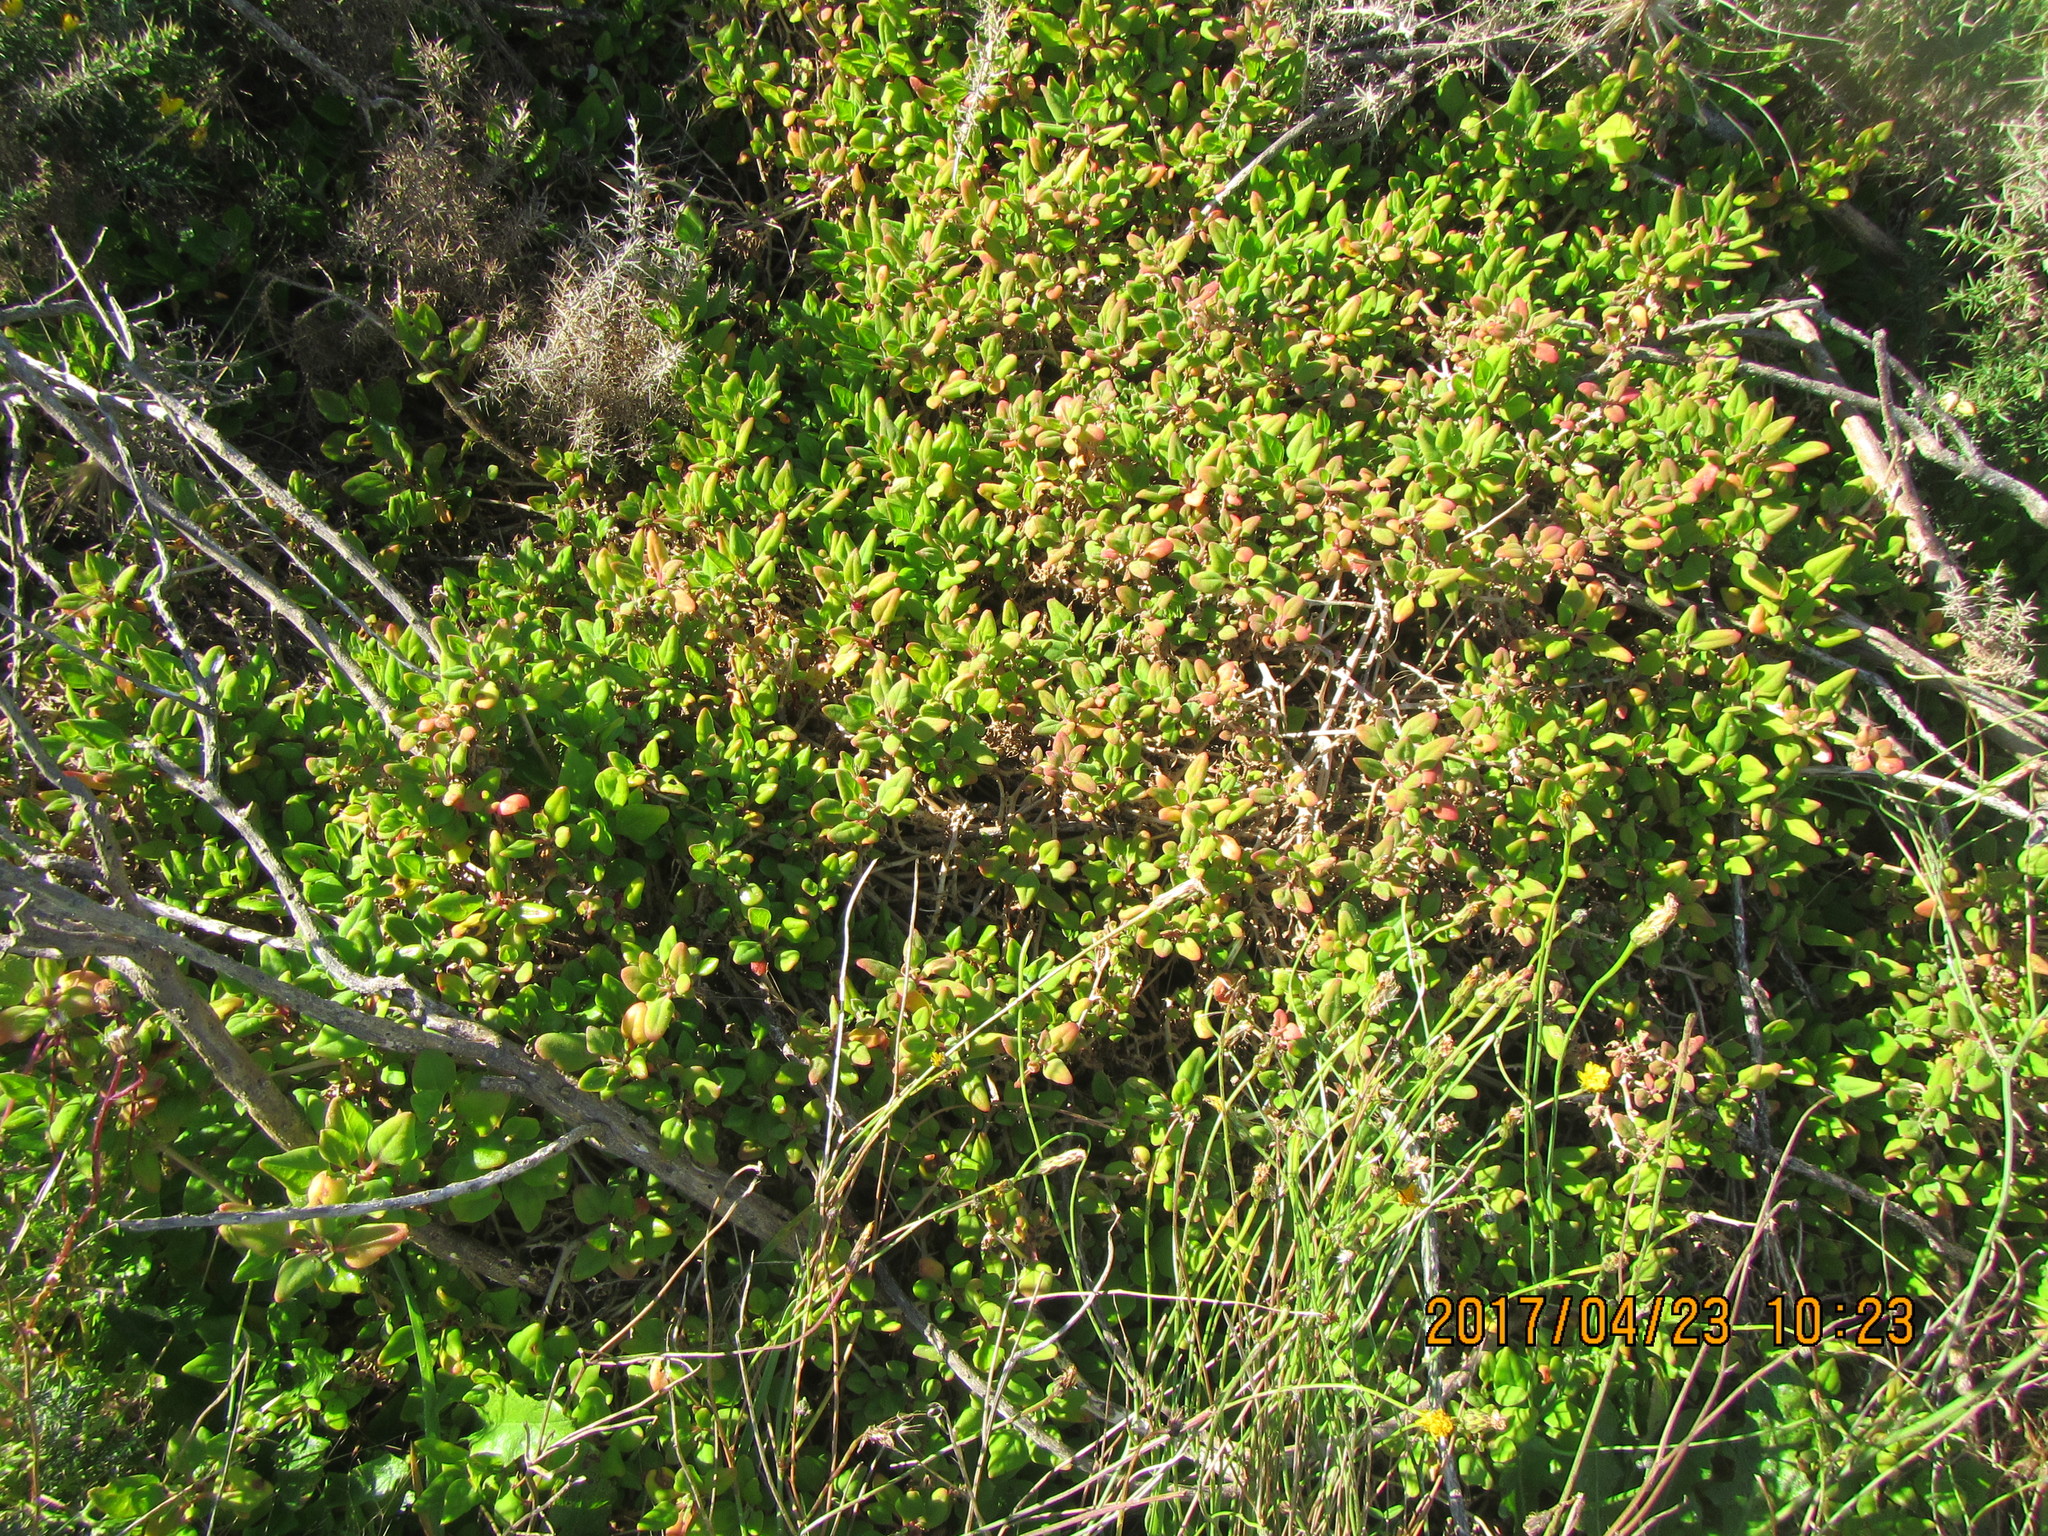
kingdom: Plantae
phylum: Tracheophyta
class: Magnoliopsida
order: Caryophyllales
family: Aizoaceae
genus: Tetragonia
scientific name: Tetragonia implexicoma
